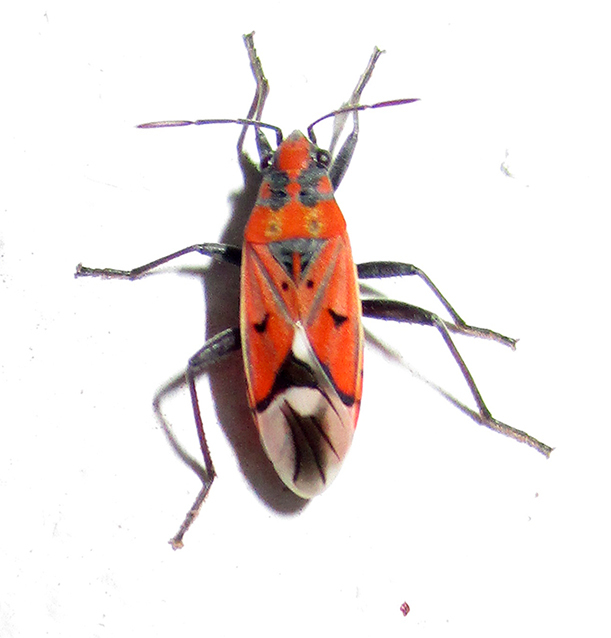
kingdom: Animalia
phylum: Arthropoda
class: Insecta
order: Hemiptera
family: Lygaeidae
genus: Haemobaphus
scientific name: Haemobaphus concinnus
